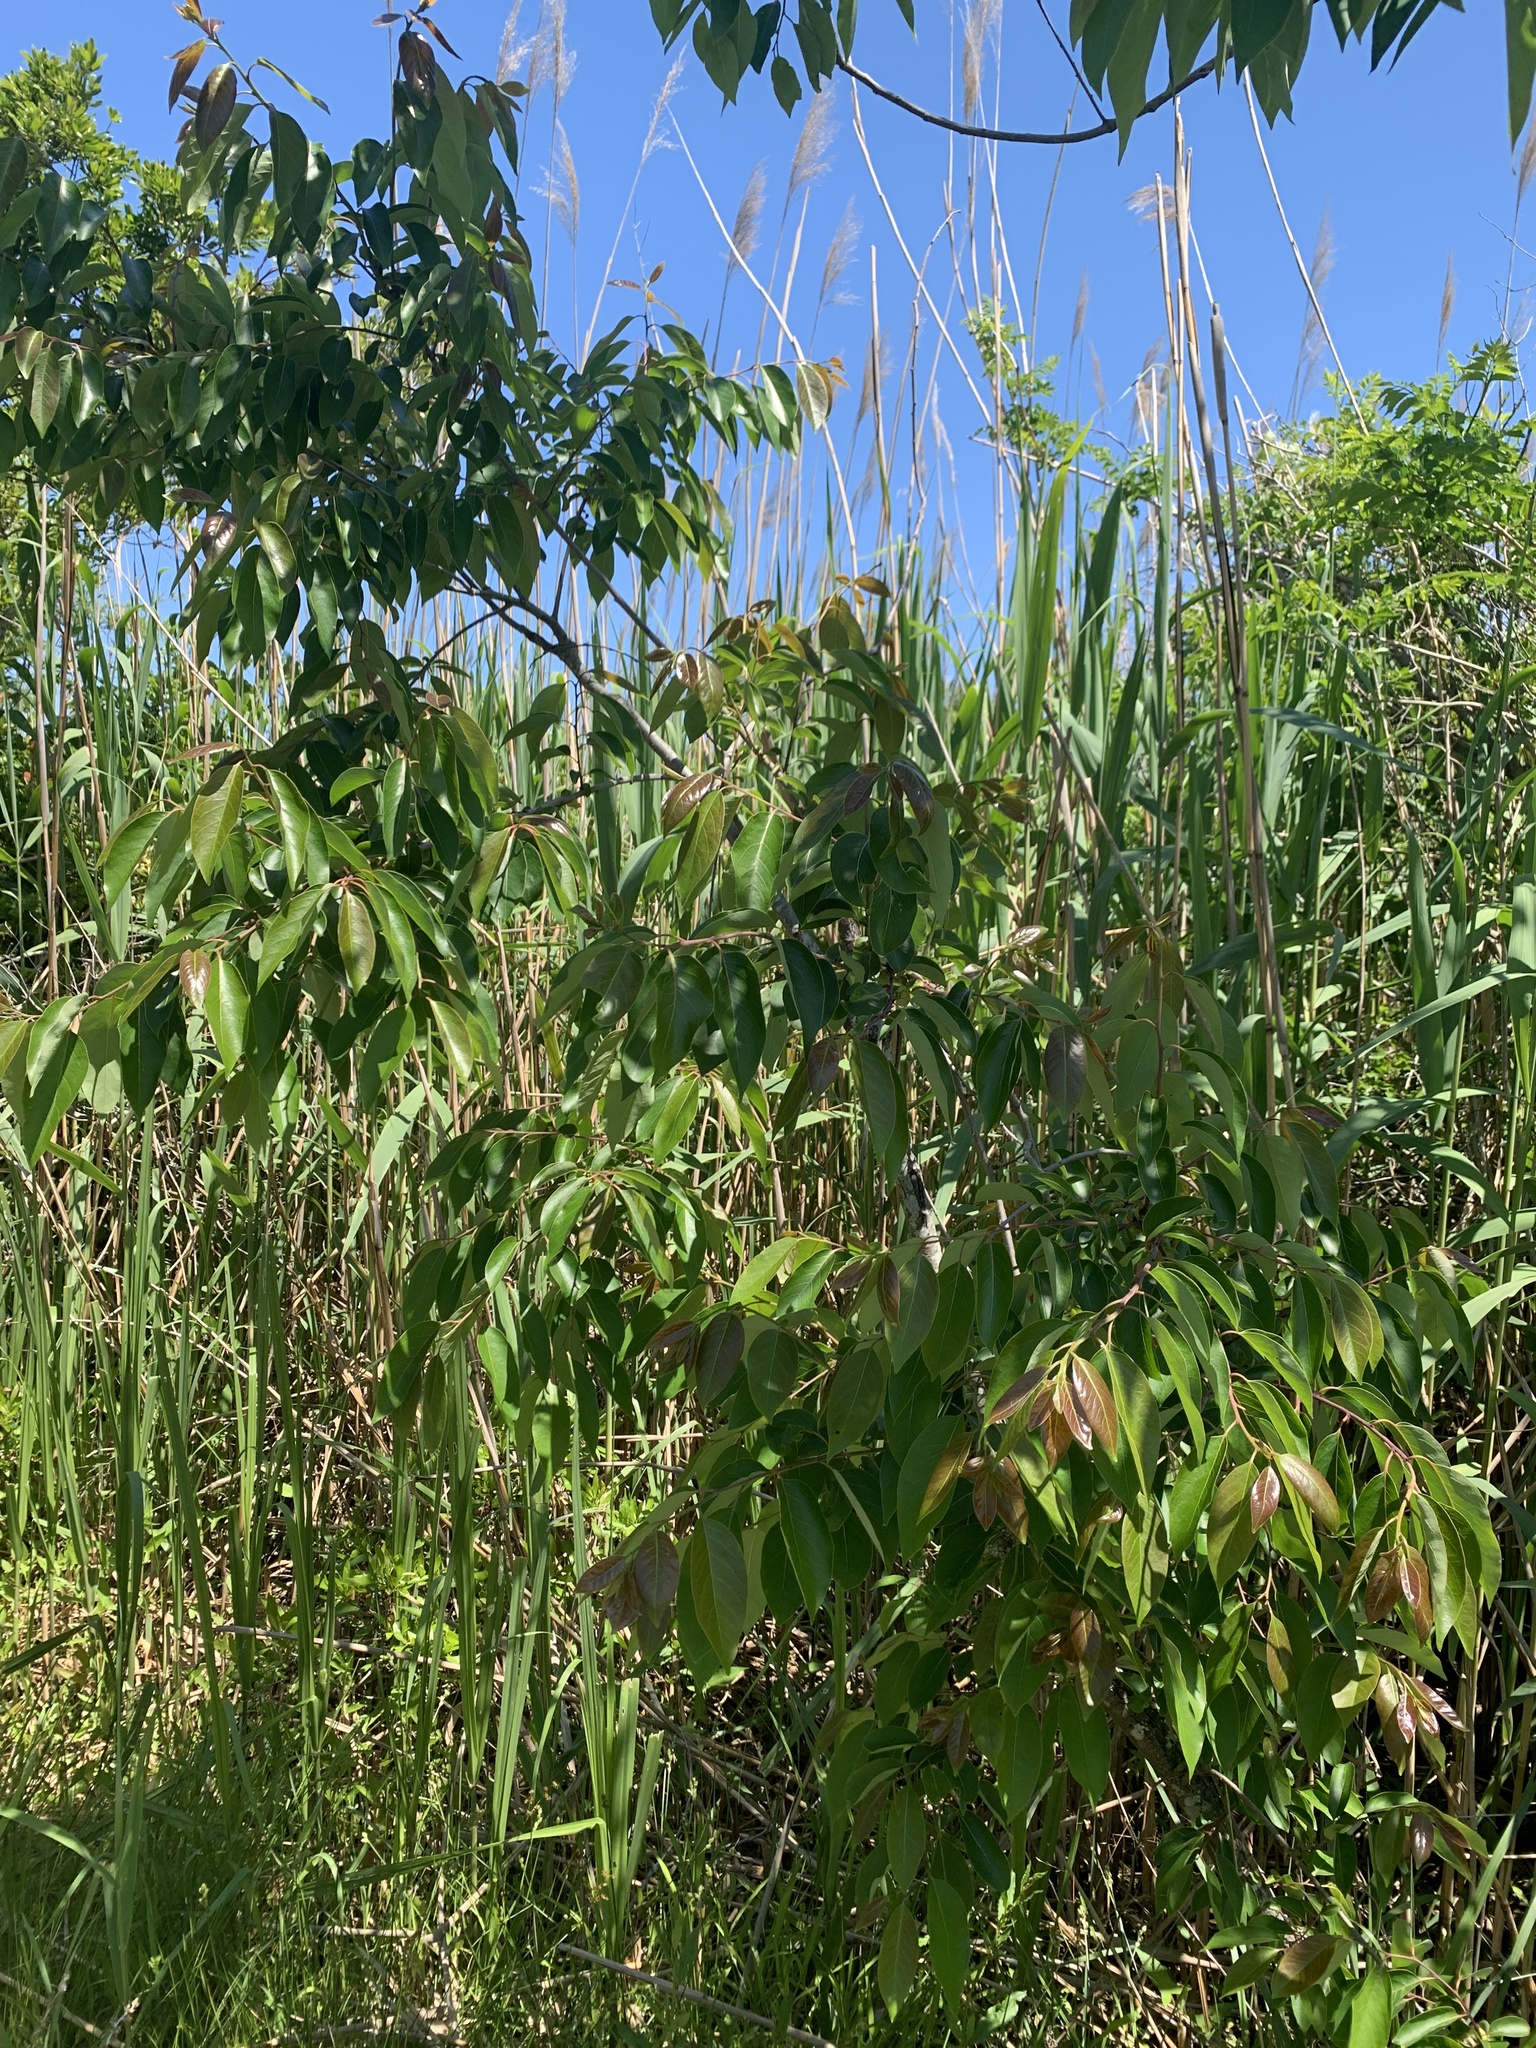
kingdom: Plantae
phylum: Tracheophyta
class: Magnoliopsida
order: Ericales
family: Ebenaceae
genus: Diospyros
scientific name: Diospyros virginiana
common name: Persimmon
